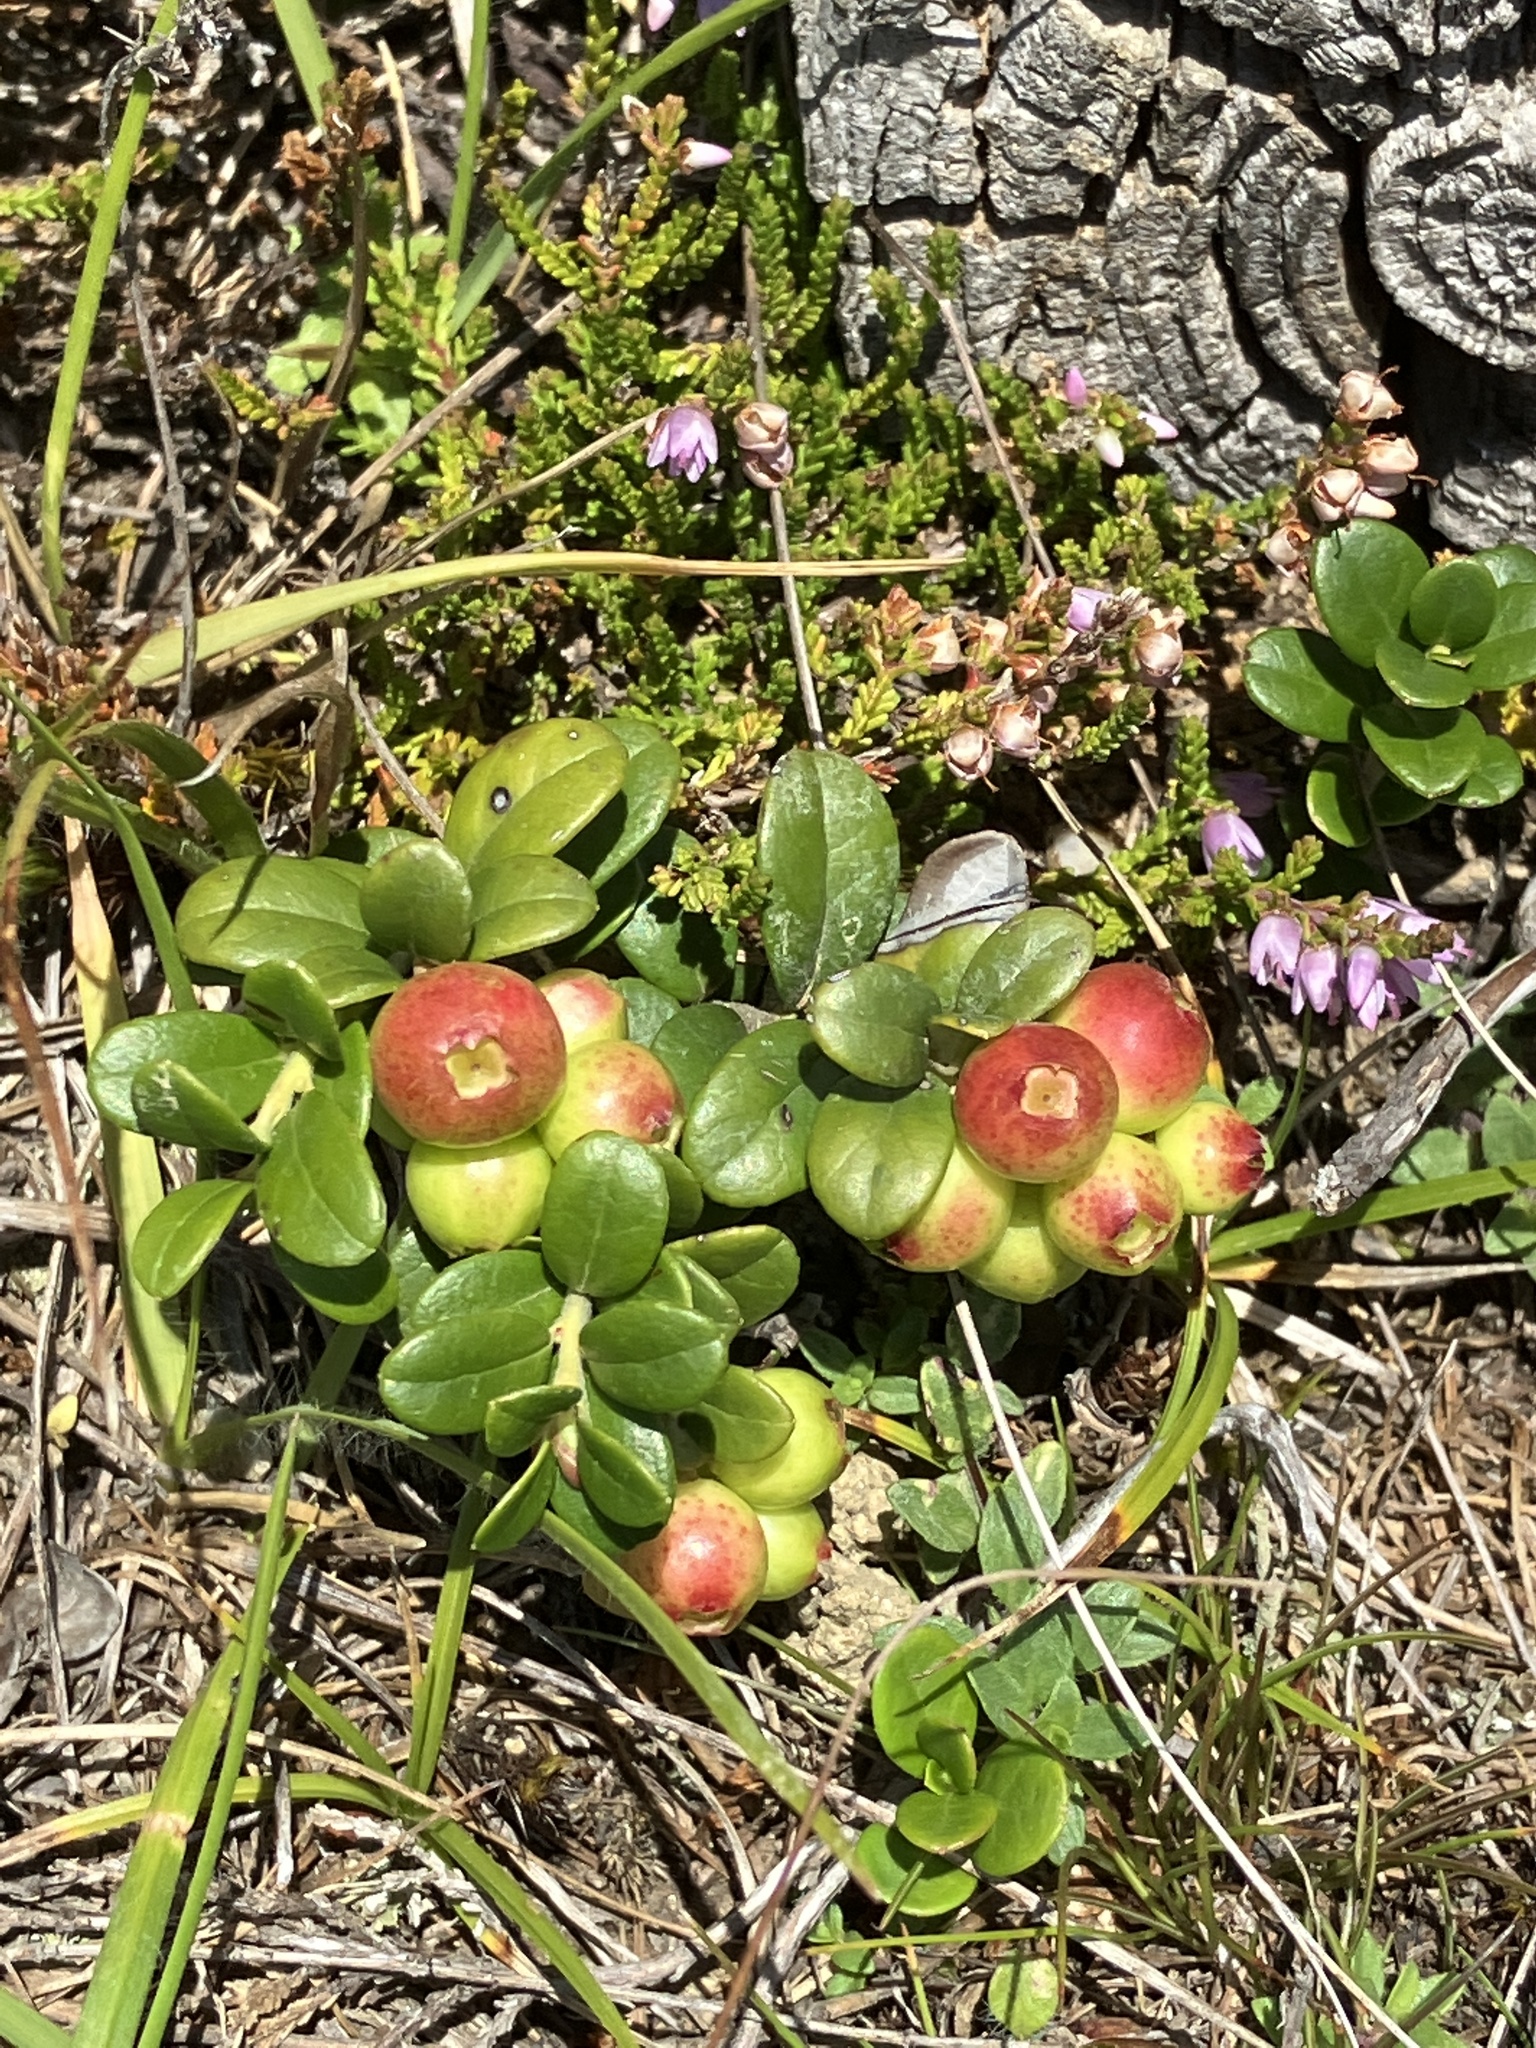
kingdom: Plantae
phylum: Tracheophyta
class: Magnoliopsida
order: Ericales
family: Ericaceae
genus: Vaccinium
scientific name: Vaccinium vitis-idaea
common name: Cowberry
